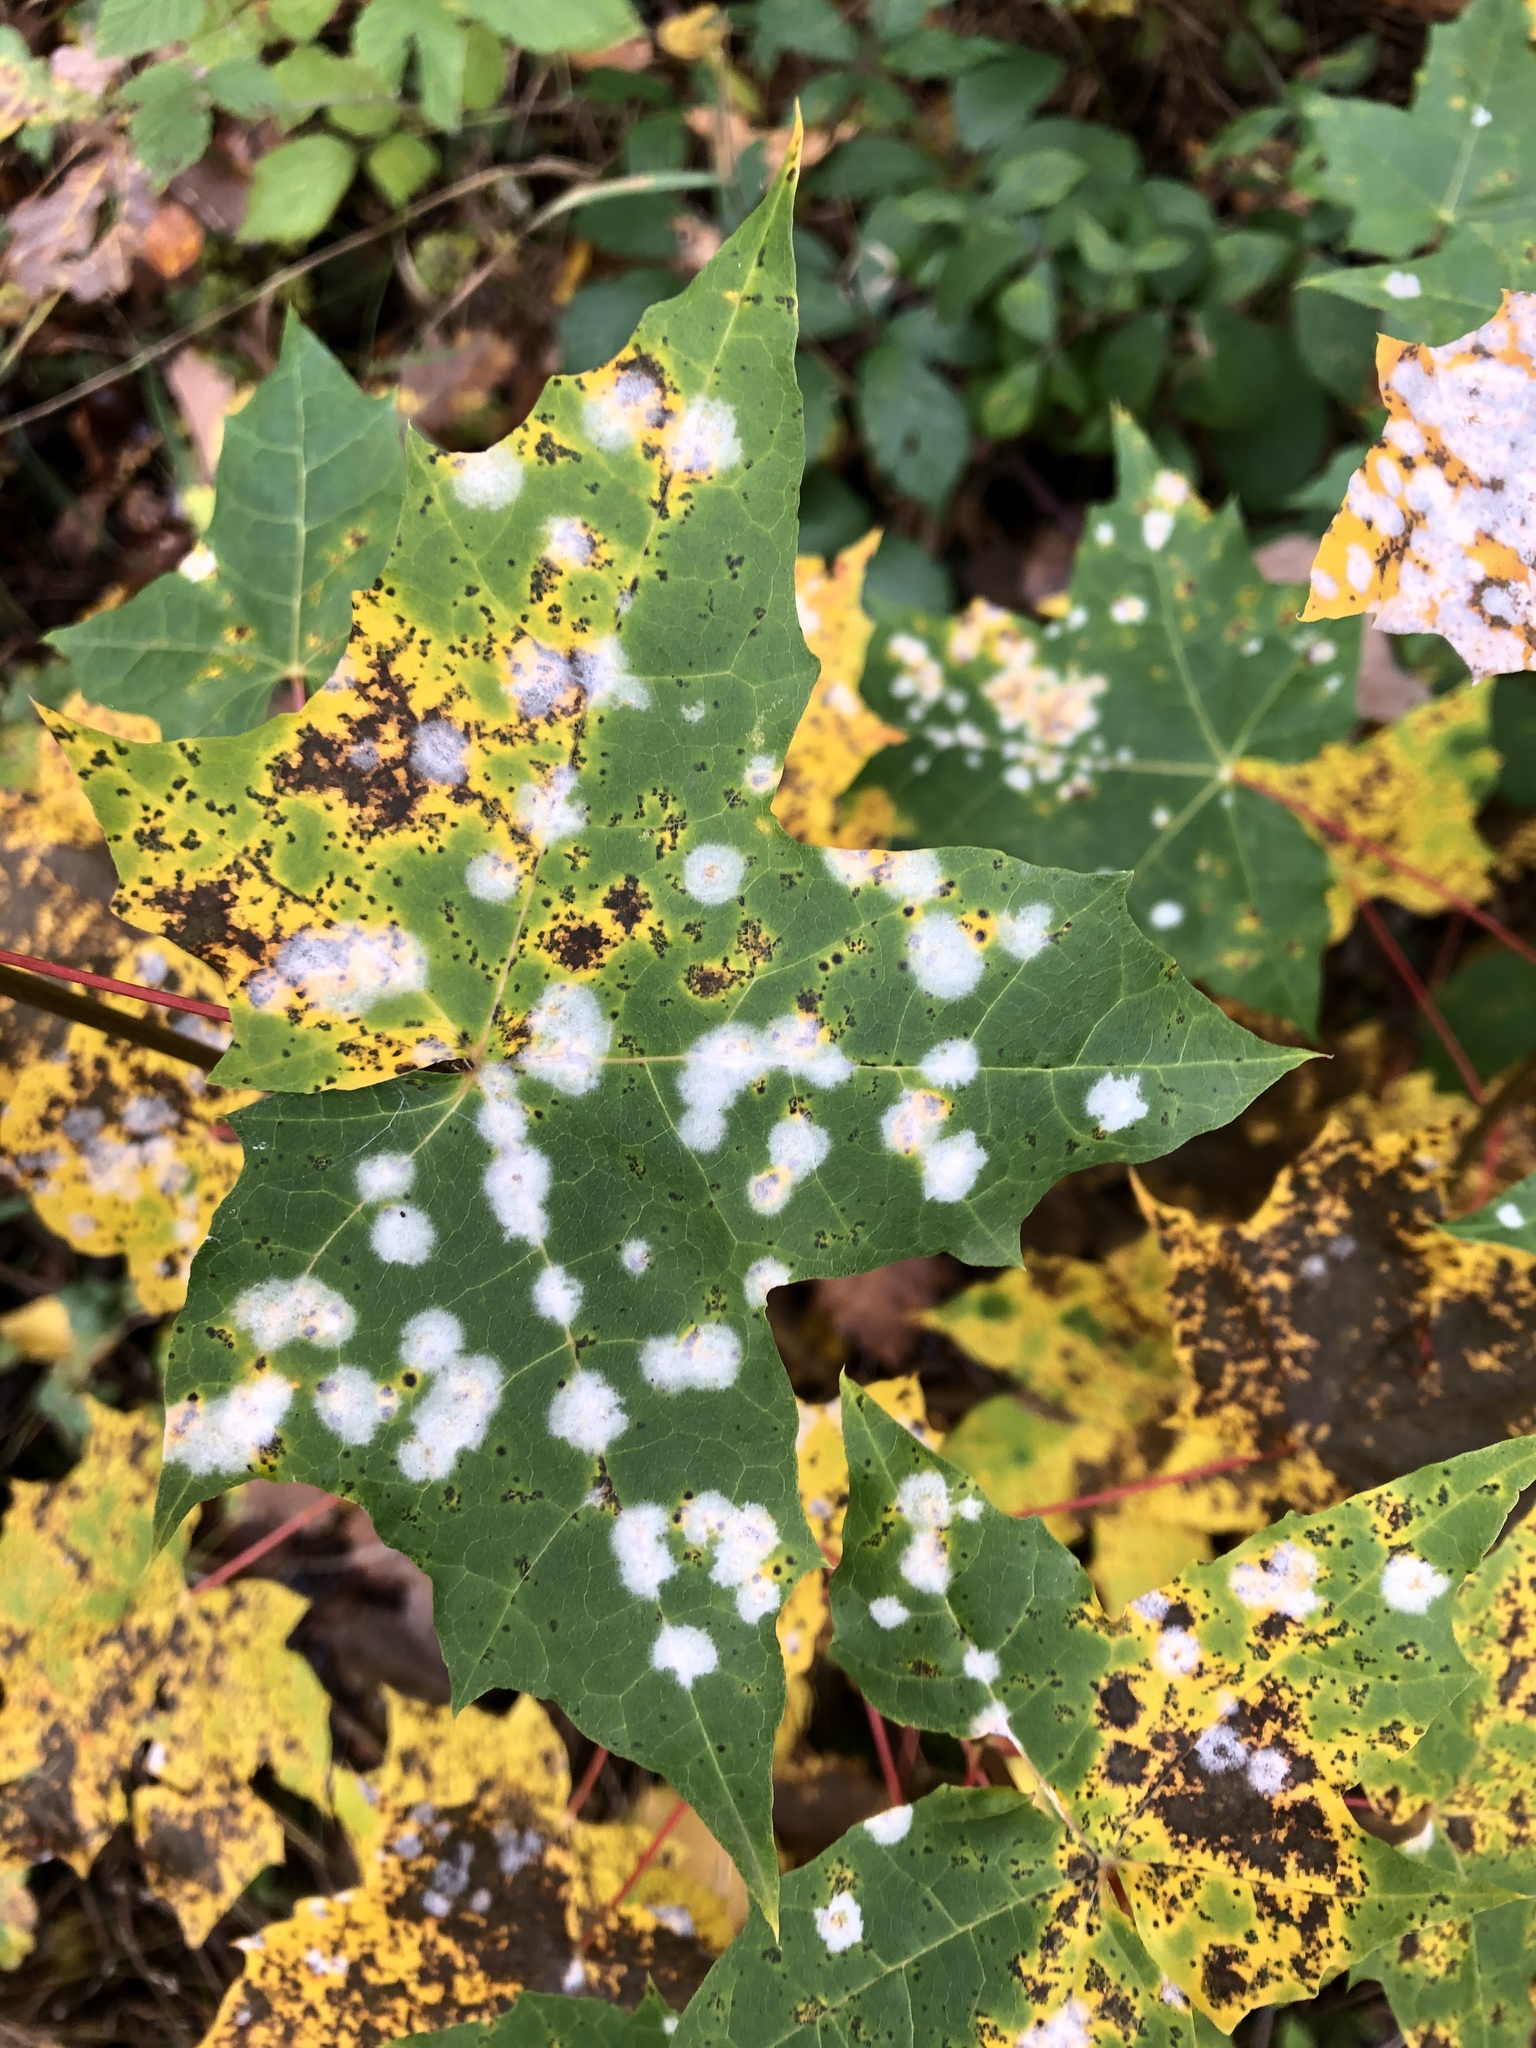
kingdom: Fungi
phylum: Ascomycota
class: Leotiomycetes
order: Helotiales
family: Erysiphaceae
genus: Sawadaea
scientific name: Sawadaea tulasnei
